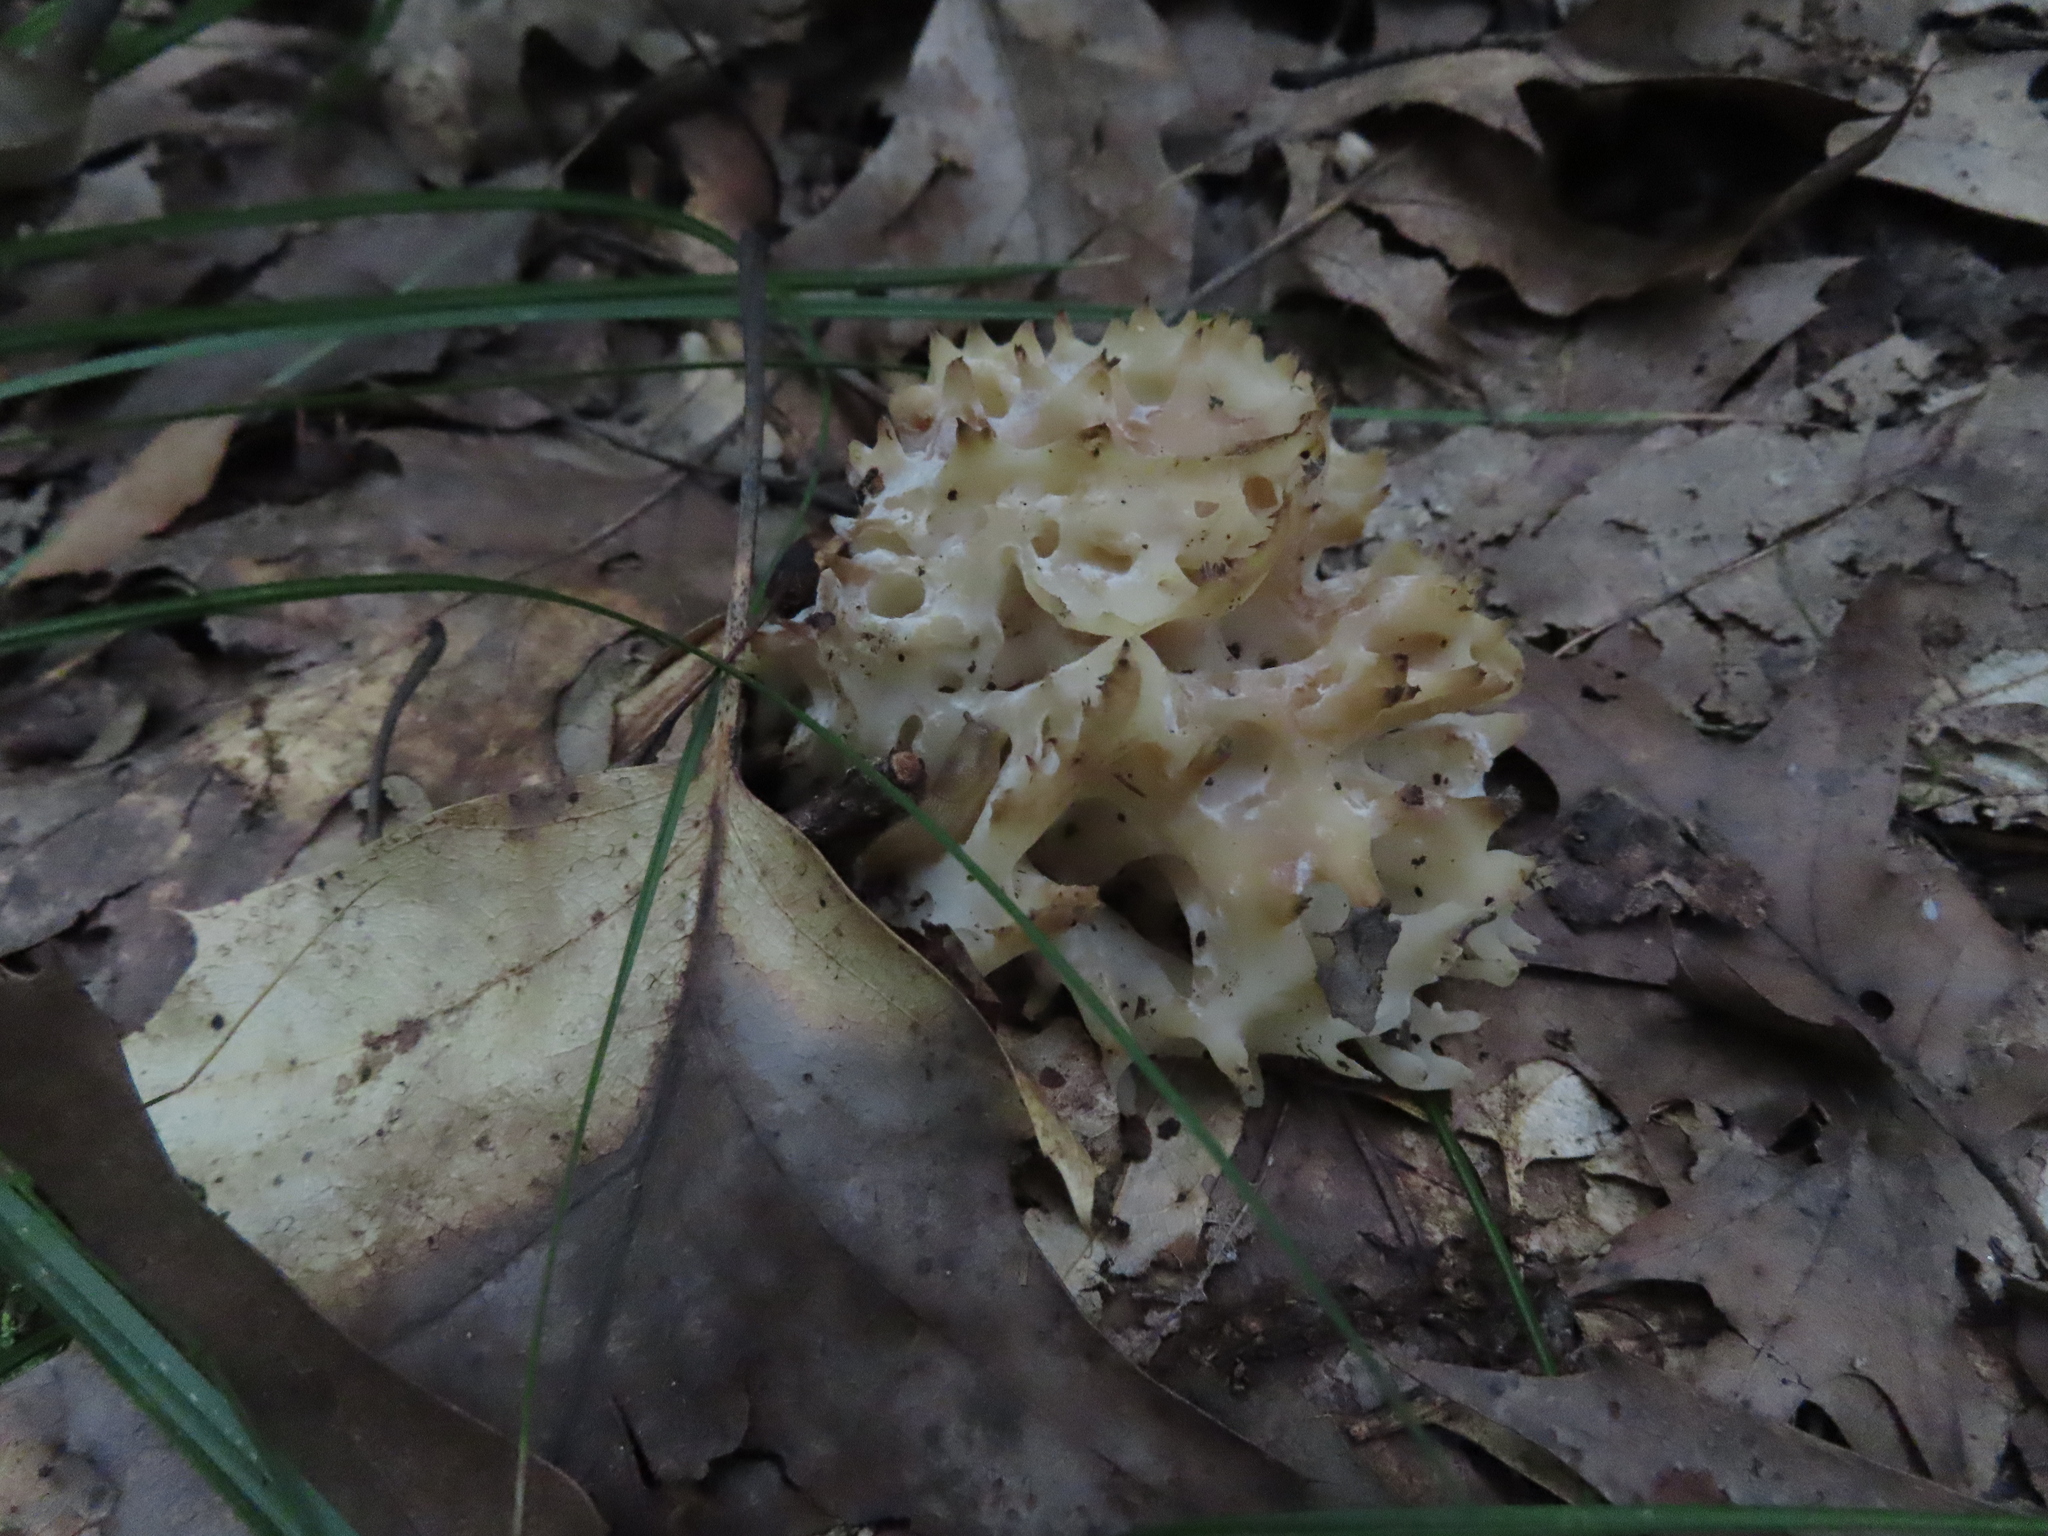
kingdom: Fungi
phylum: Basidiomycota
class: Agaricomycetes
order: Sebacinales
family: Sebacinaceae
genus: Sebacina
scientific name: Sebacina sparassoidea
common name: White coral jelly fungus
